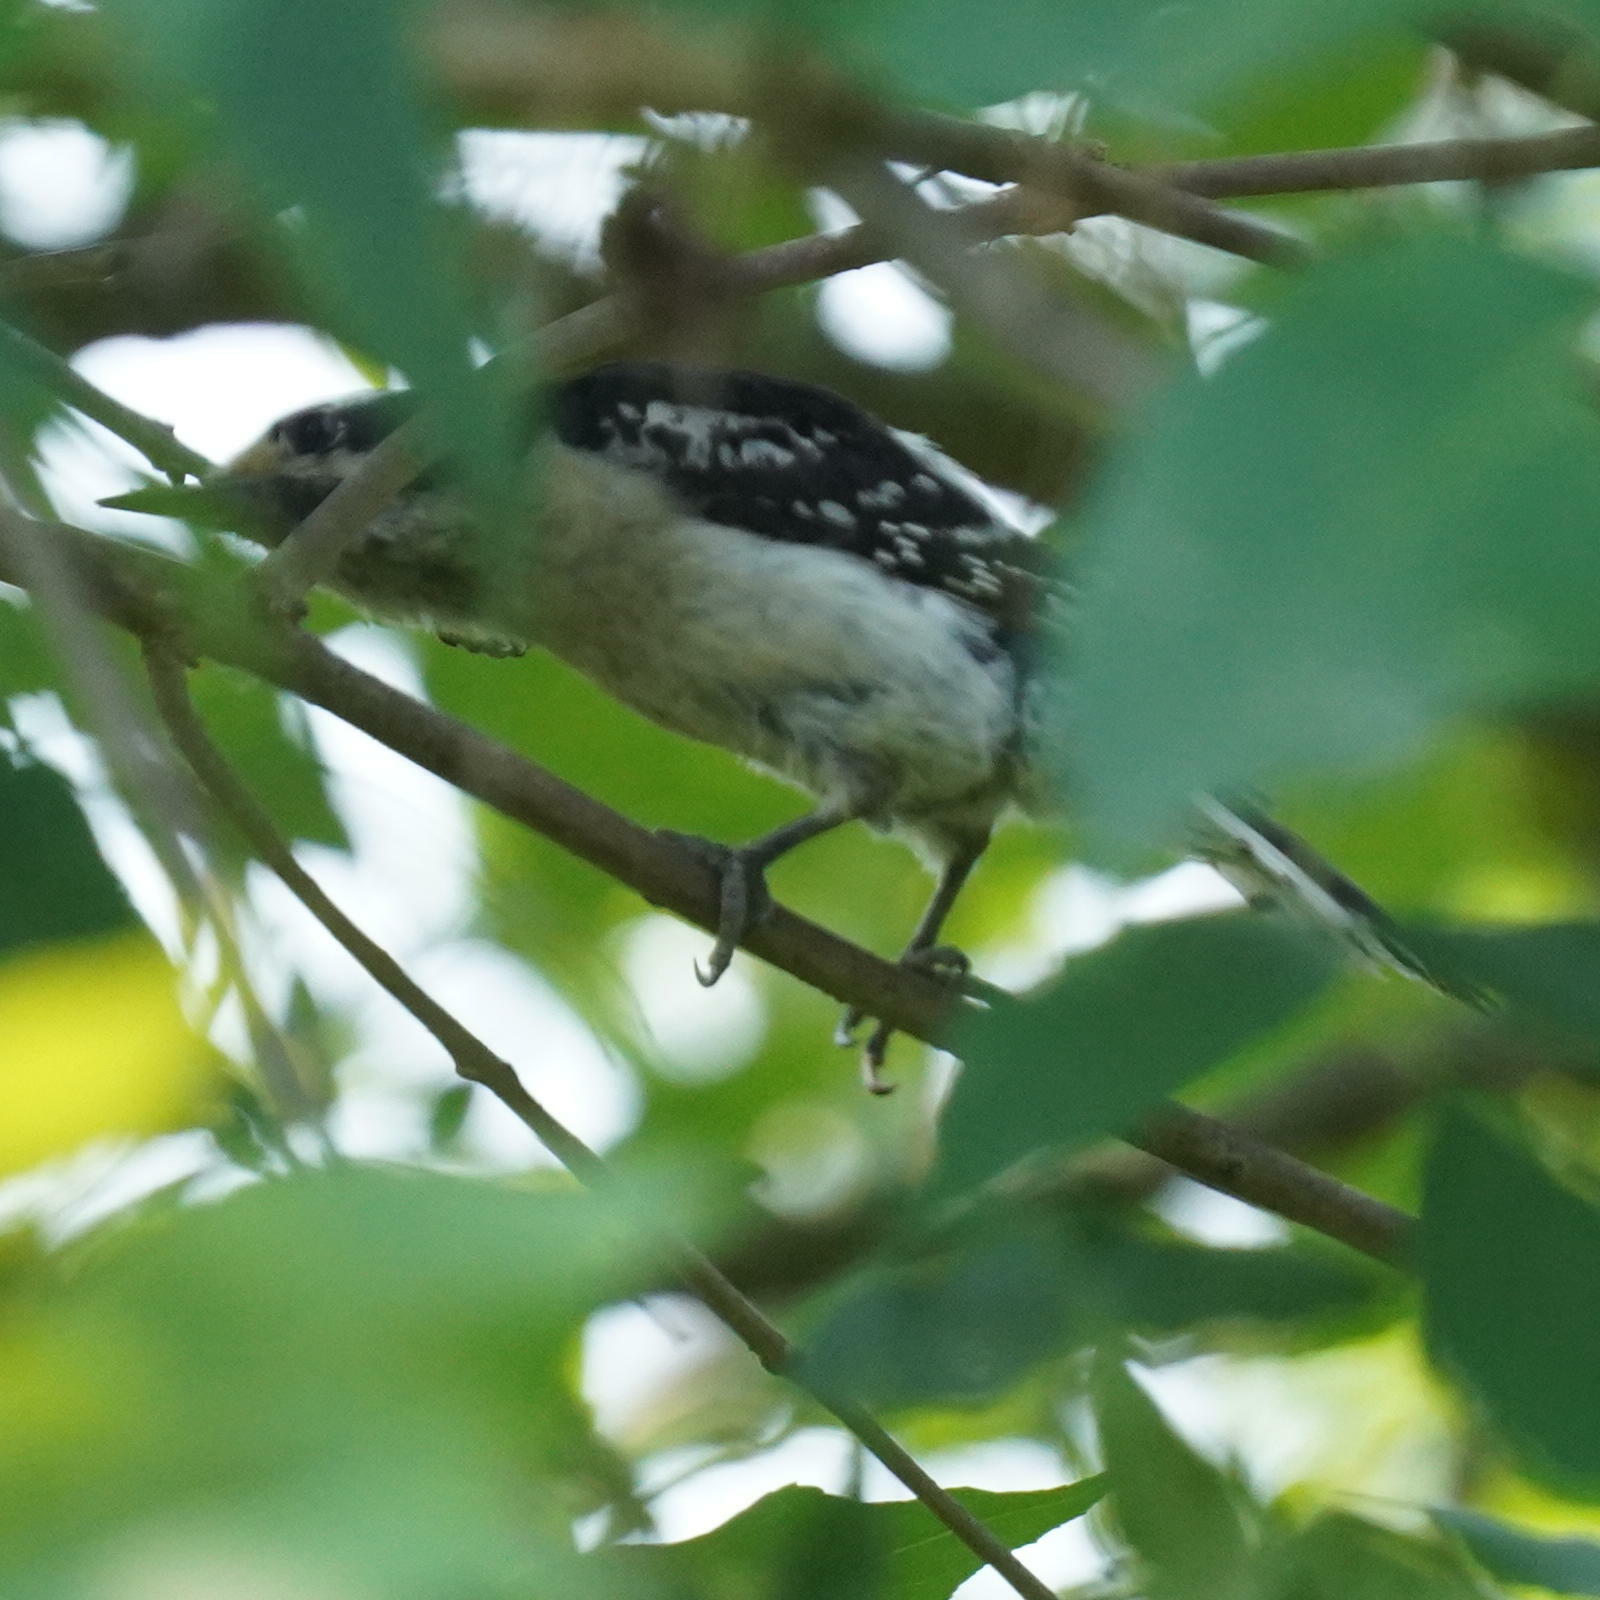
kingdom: Animalia
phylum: Chordata
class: Aves
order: Piciformes
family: Picidae
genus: Dryobates
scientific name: Dryobates pubescens
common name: Downy woodpecker
